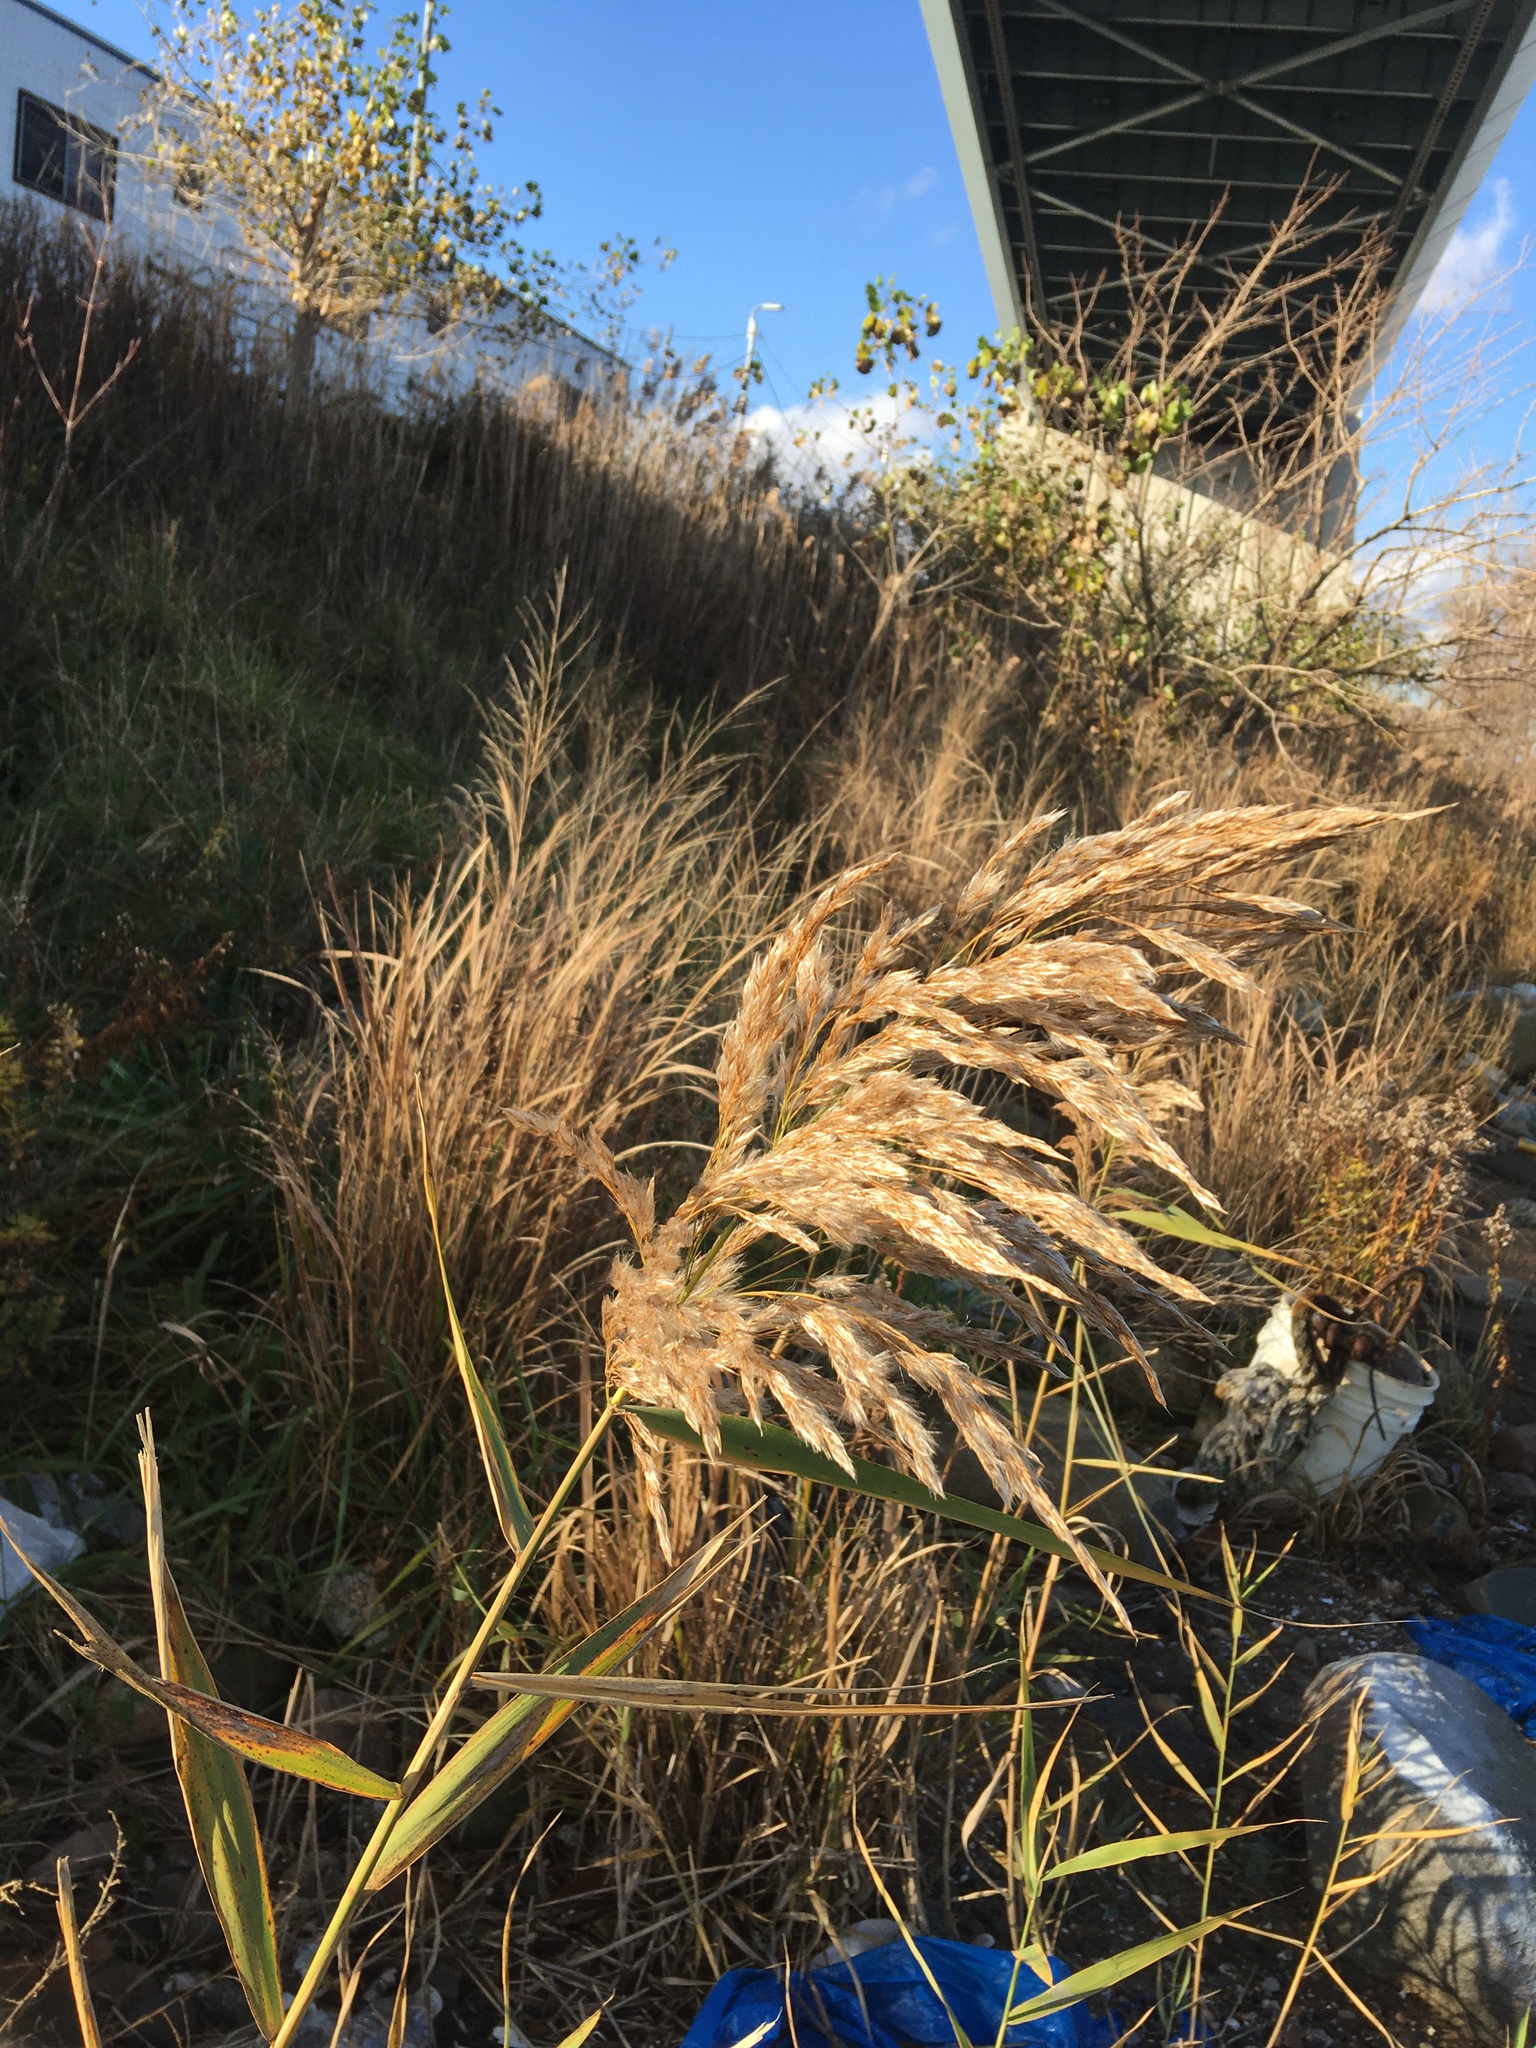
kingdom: Plantae
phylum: Tracheophyta
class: Liliopsida
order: Poales
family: Poaceae
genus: Phragmites
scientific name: Phragmites australis
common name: Common reed
